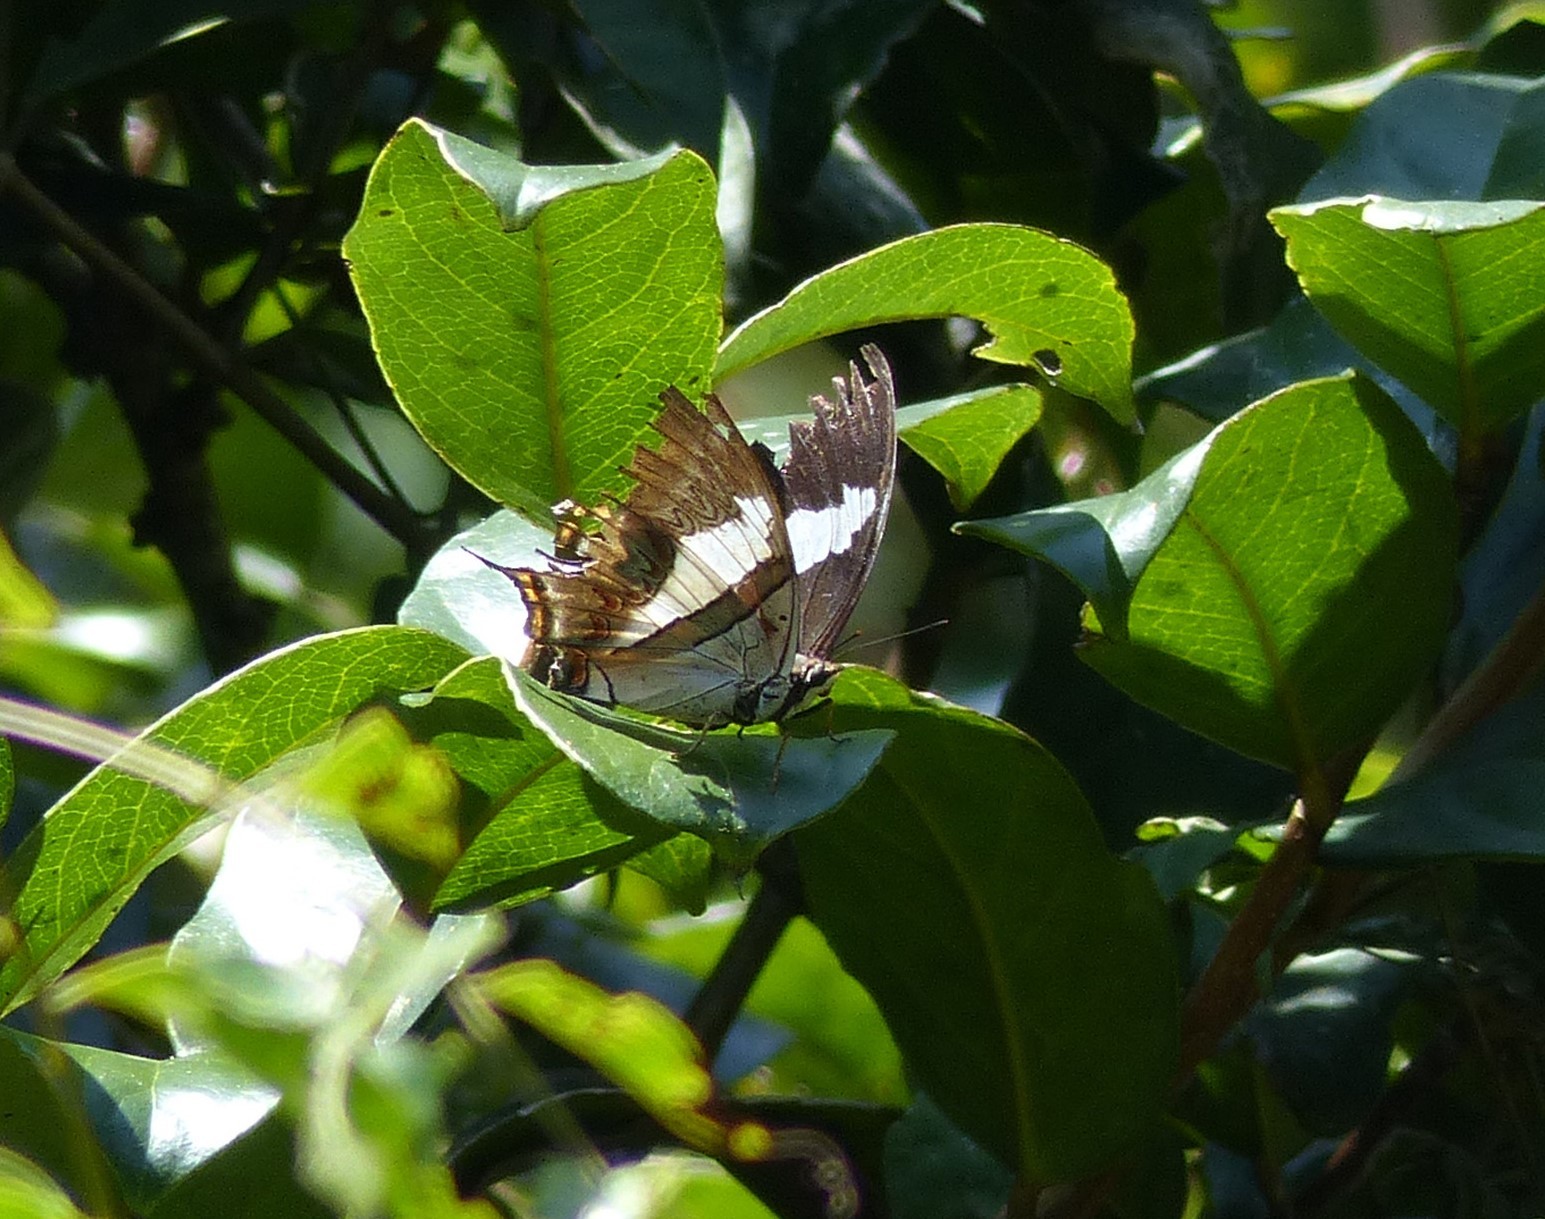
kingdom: Animalia
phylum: Arthropoda
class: Insecta
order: Lepidoptera
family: Nymphalidae
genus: Polyura
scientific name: Polyura schreiber
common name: Blue nawab
